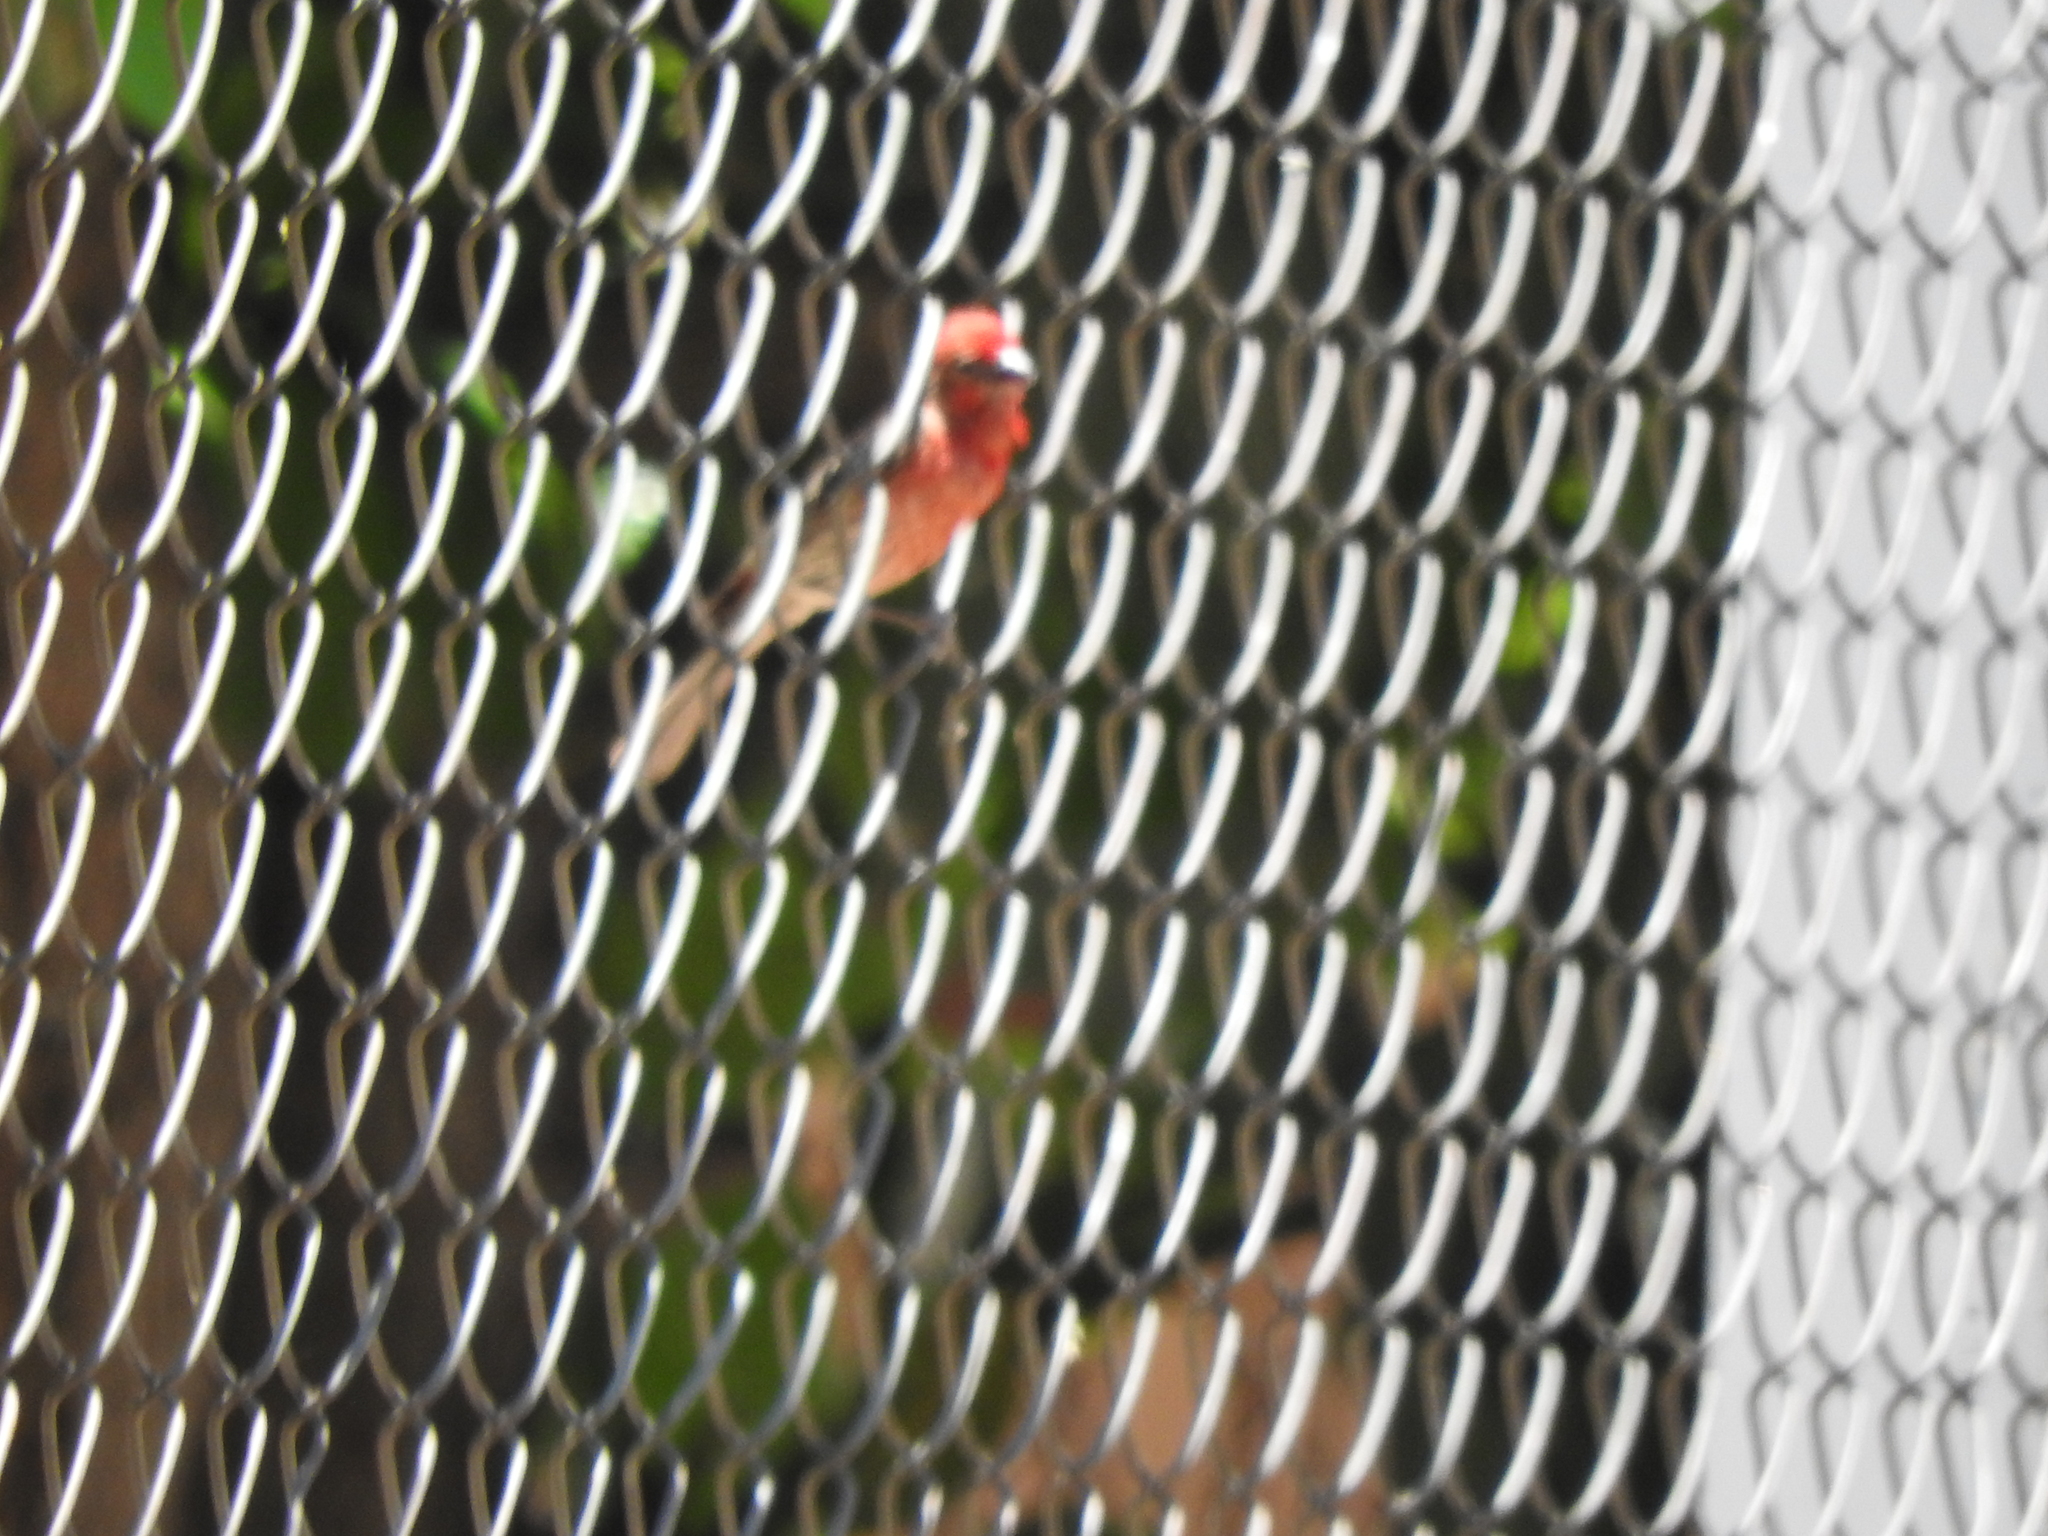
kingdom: Animalia
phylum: Chordata
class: Aves
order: Passeriformes
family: Fringillidae
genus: Haemorhous
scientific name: Haemorhous mexicanus
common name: House finch
